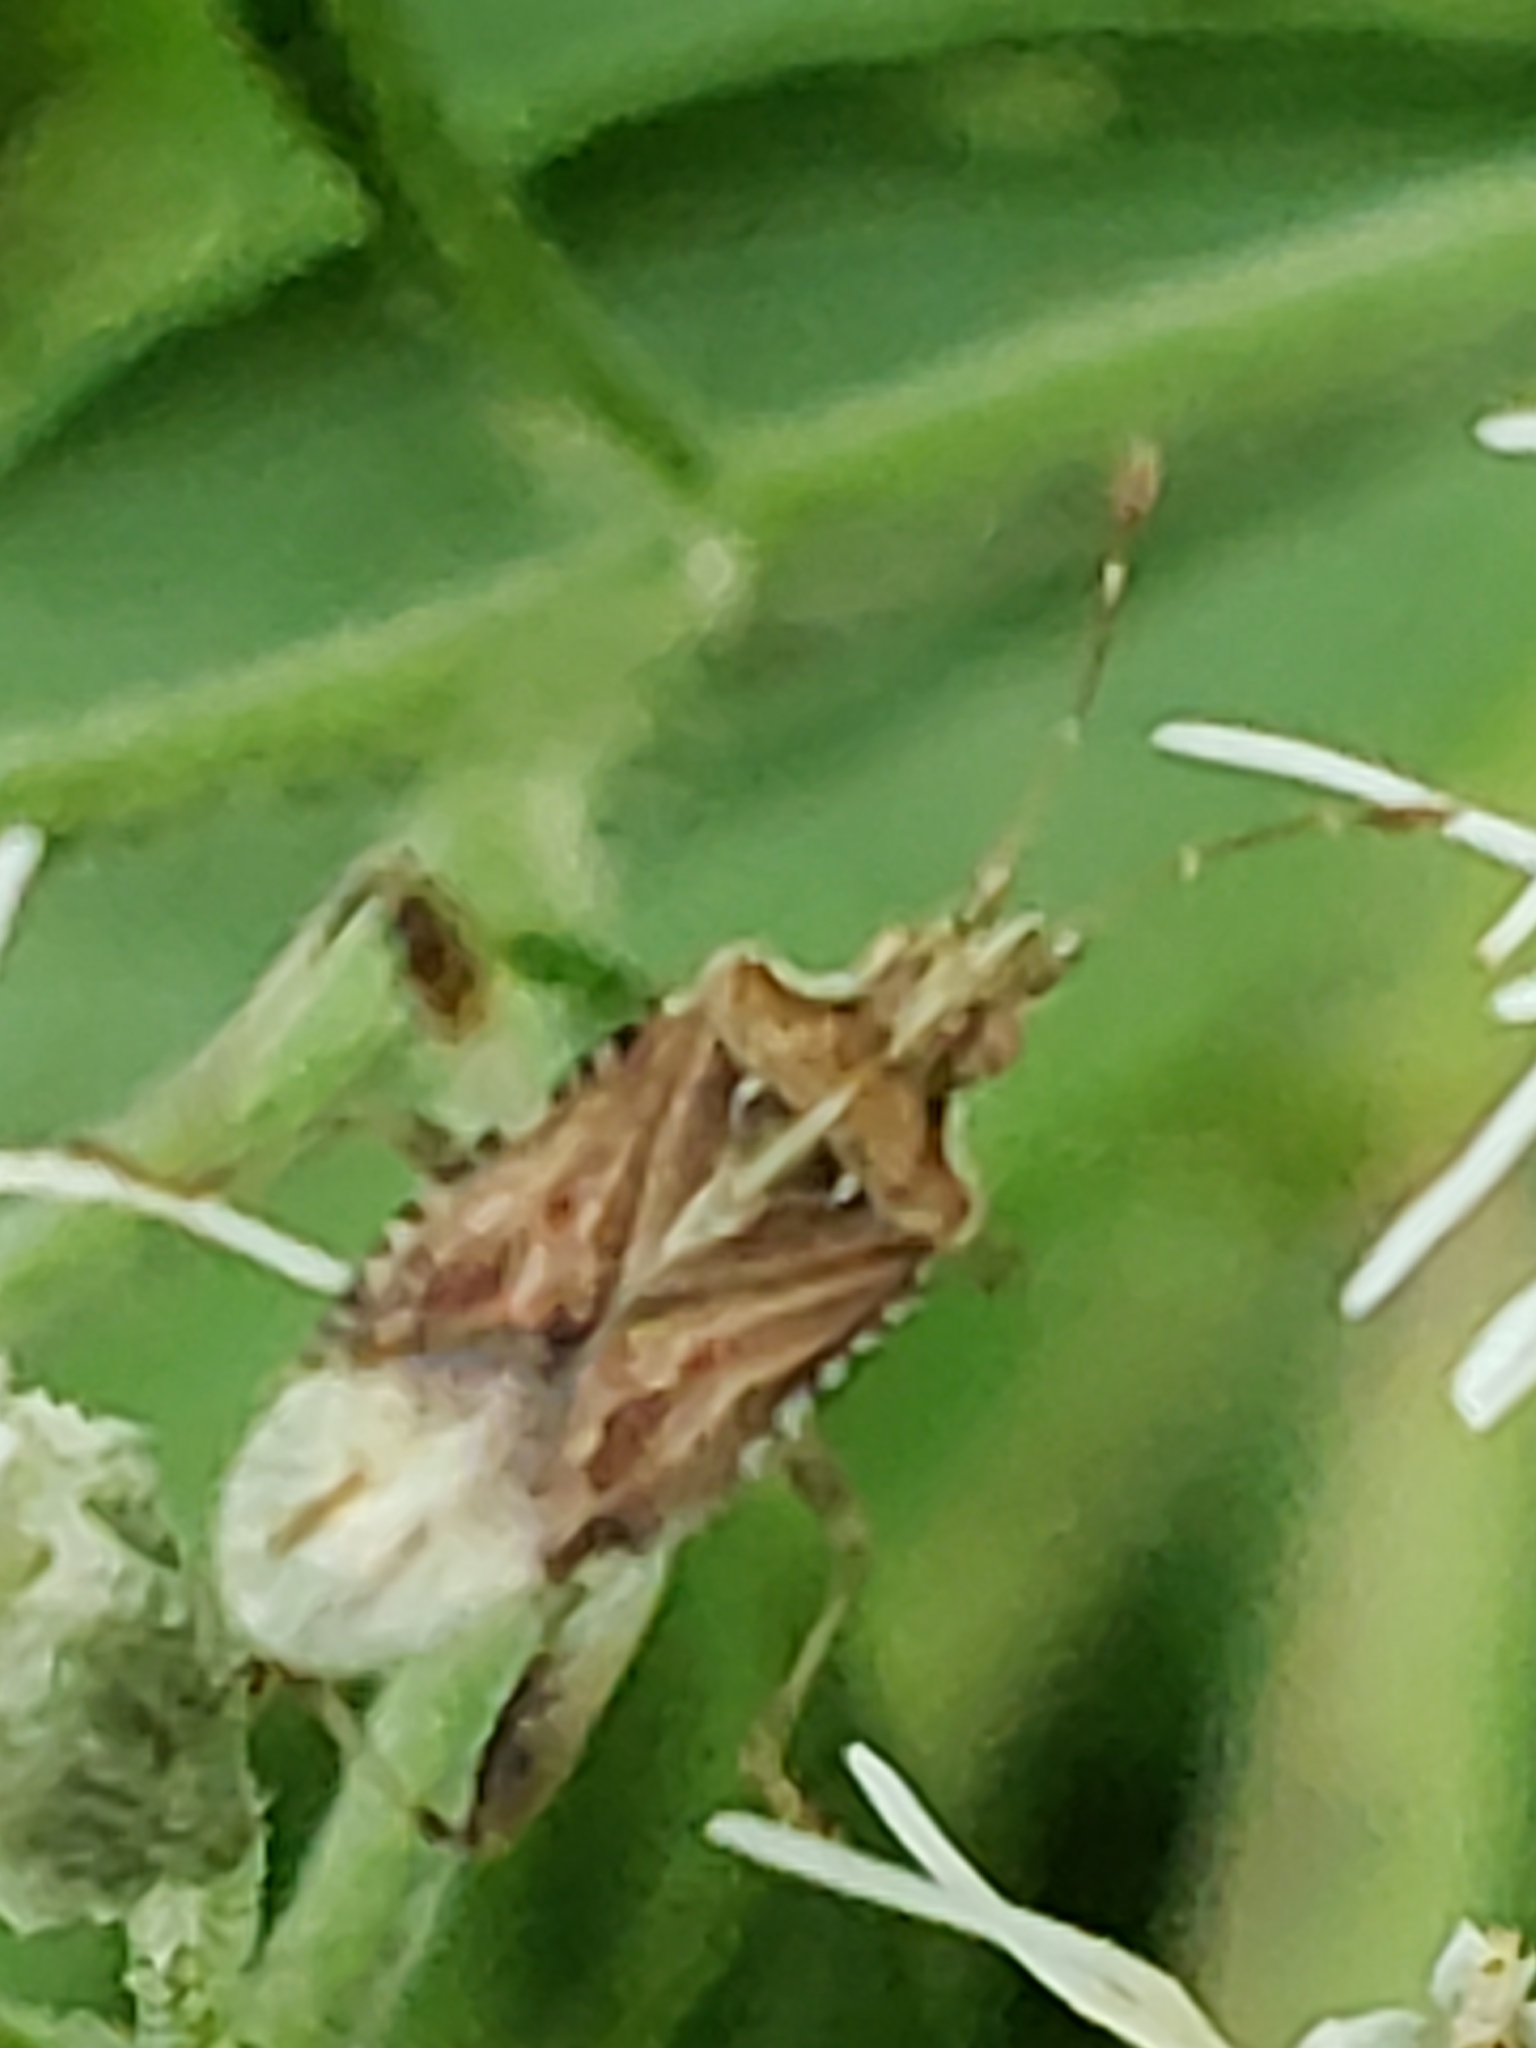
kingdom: Animalia
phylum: Arthropoda
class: Insecta
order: Hemiptera
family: Rhopalidae
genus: Harmostes
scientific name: Harmostes fraterculus
